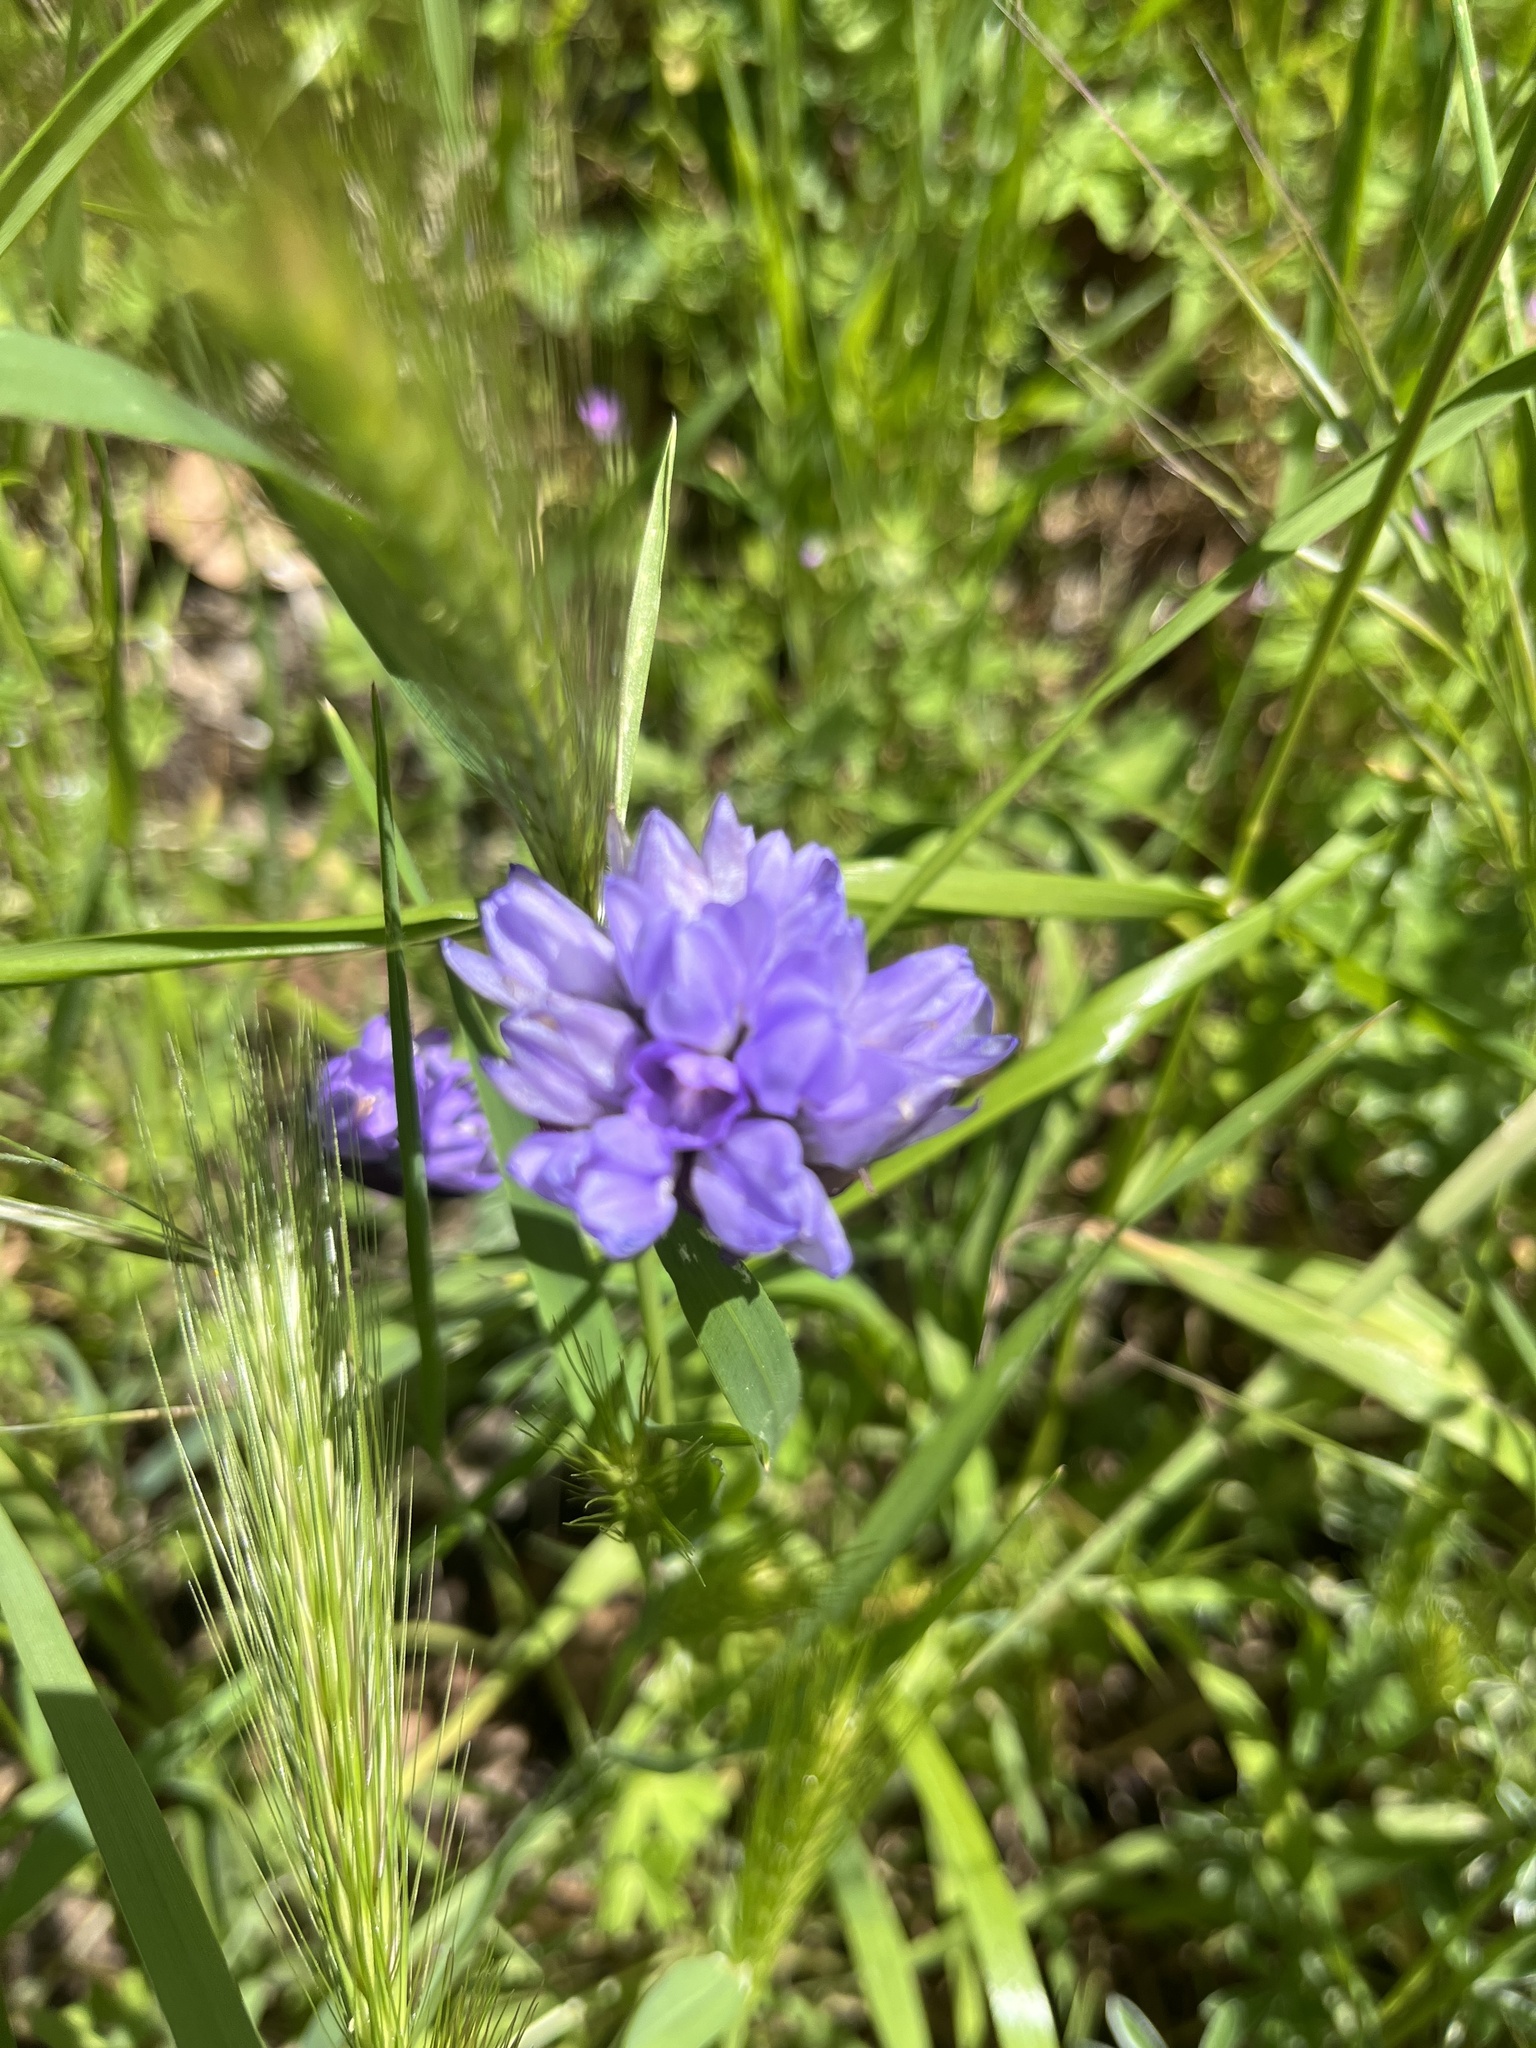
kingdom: Plantae
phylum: Tracheophyta
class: Liliopsida
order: Asparagales
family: Asparagaceae
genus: Dipterostemon
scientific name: Dipterostemon capitatus
